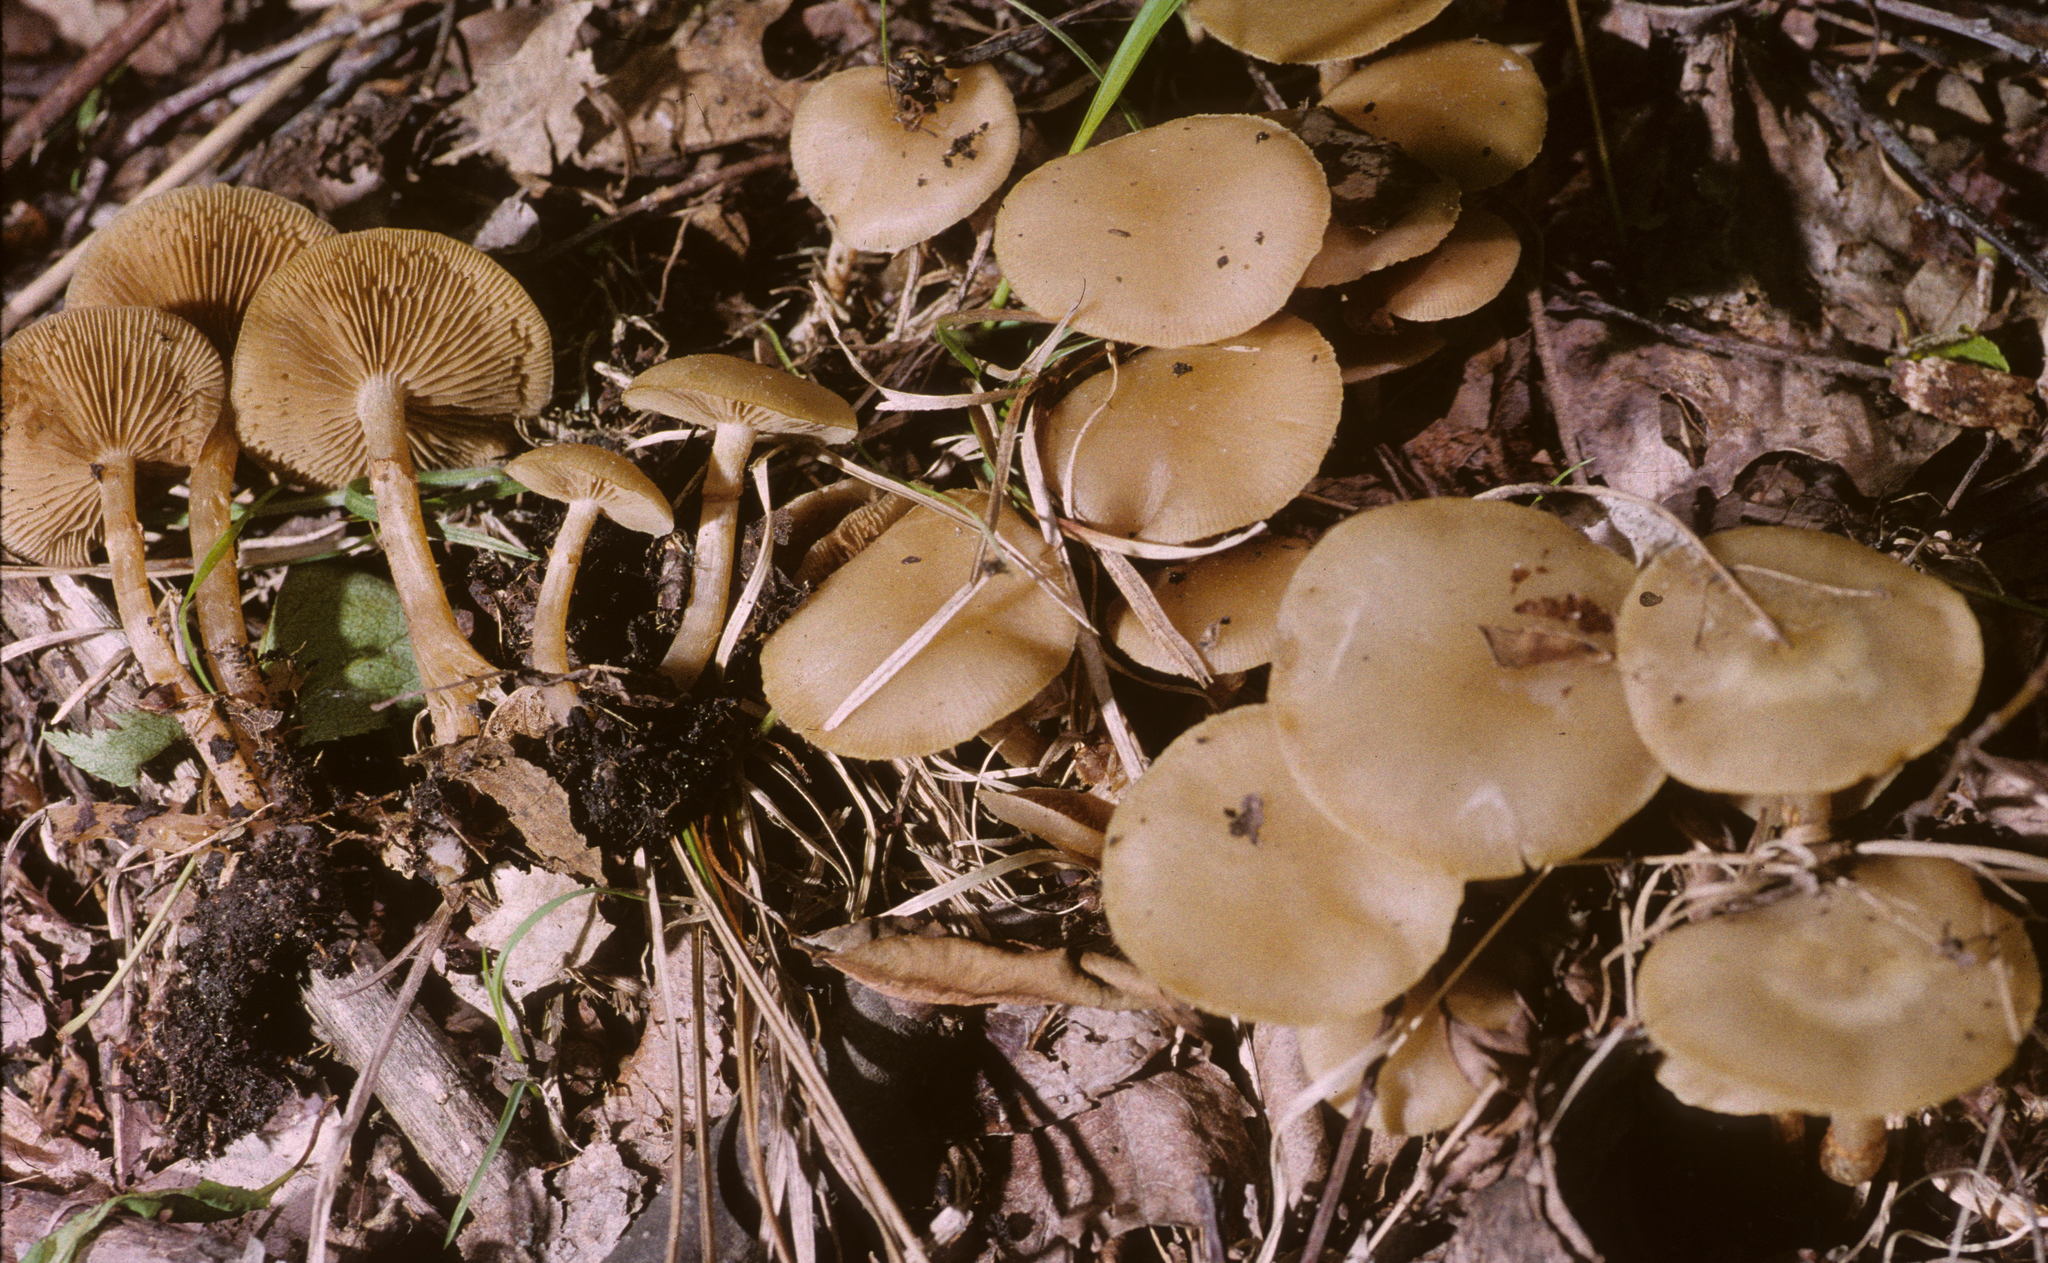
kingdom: Fungi
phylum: Basidiomycota
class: Agaricomycetes
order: Agaricales
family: Strophariaceae
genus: Kuehneromyces
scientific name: Kuehneromyces marginellus
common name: Sheathed woodtuft
